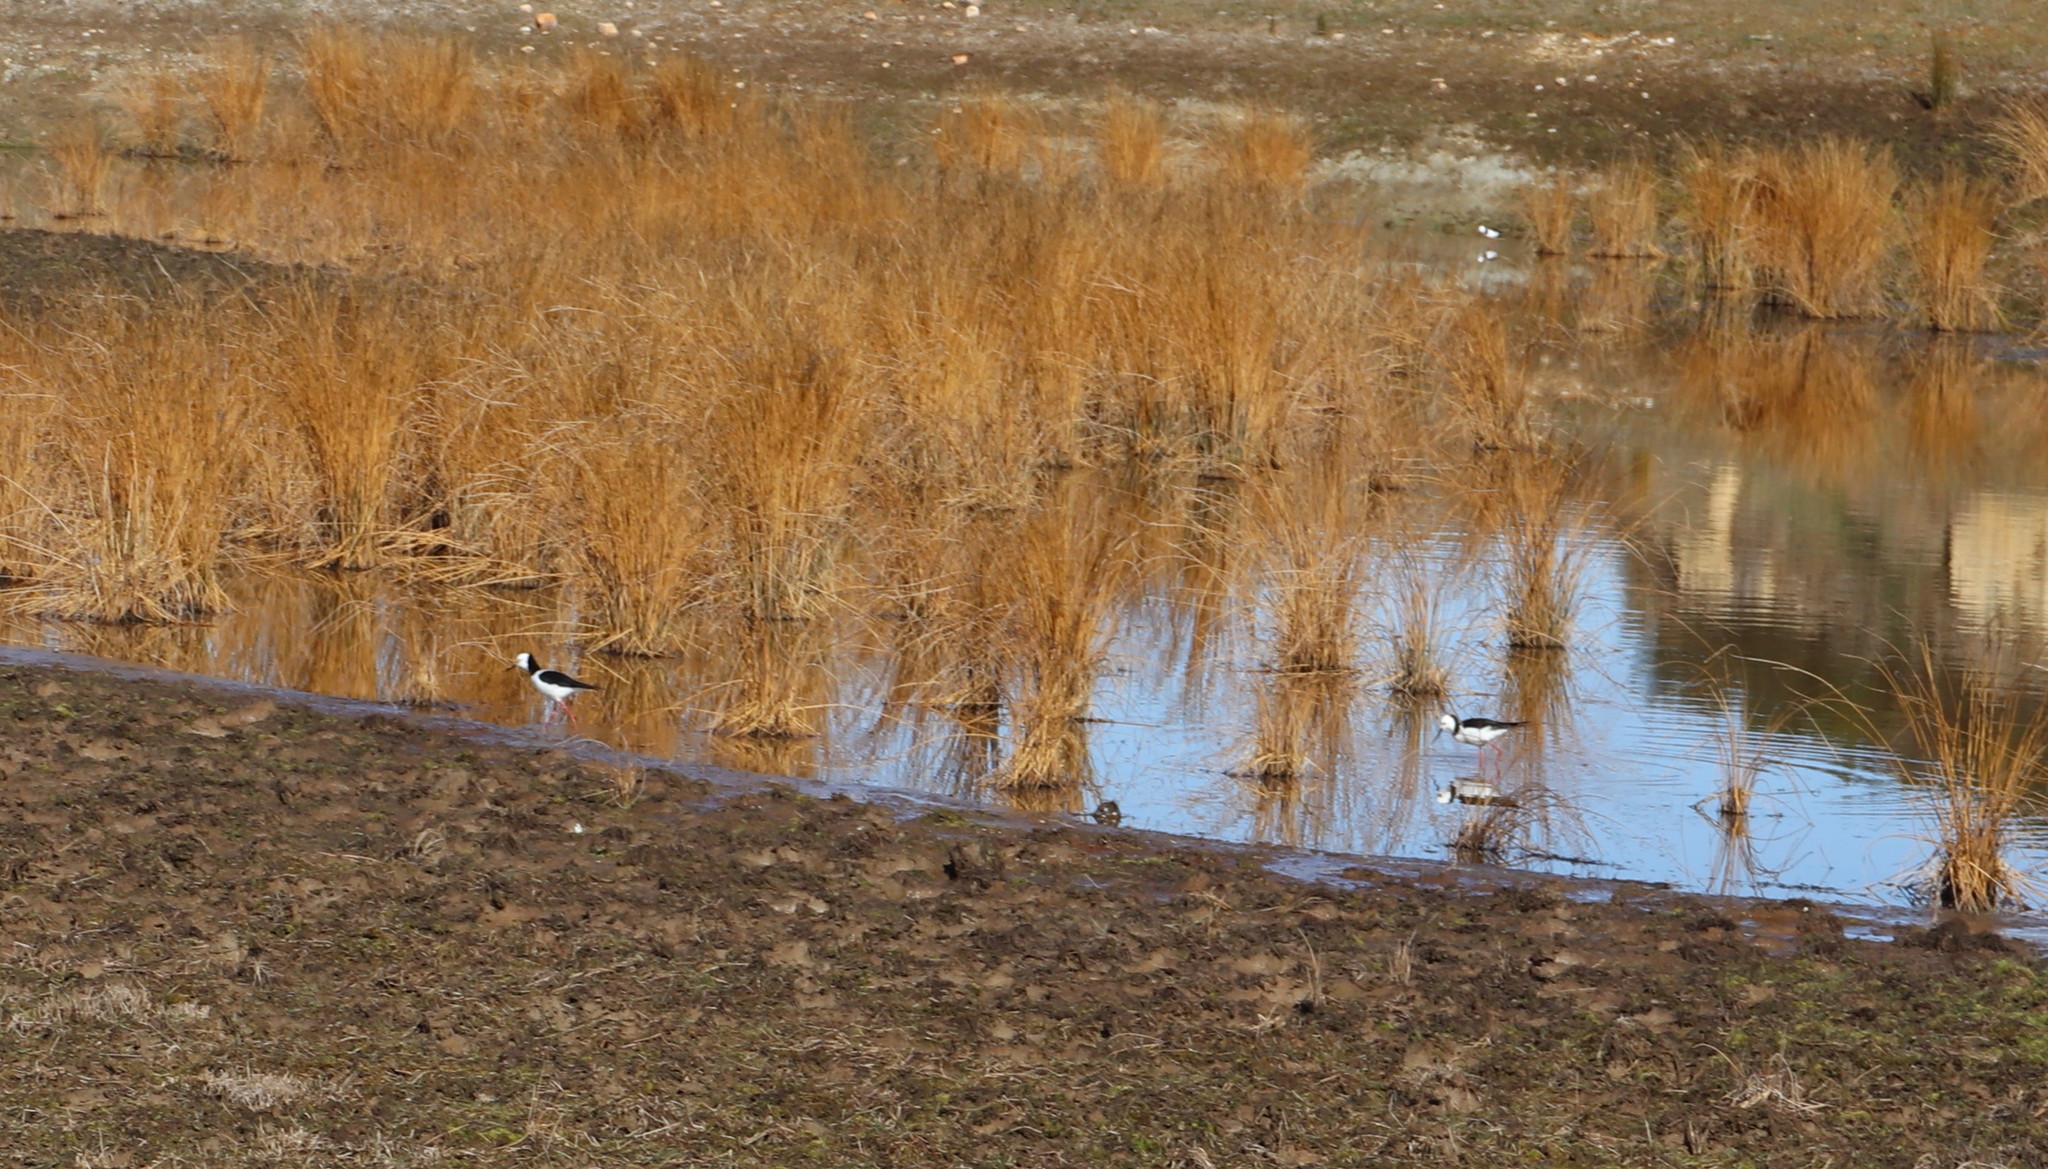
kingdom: Animalia
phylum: Chordata
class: Aves
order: Charadriiformes
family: Recurvirostridae
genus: Himantopus
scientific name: Himantopus leucocephalus
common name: White-headed stilt
